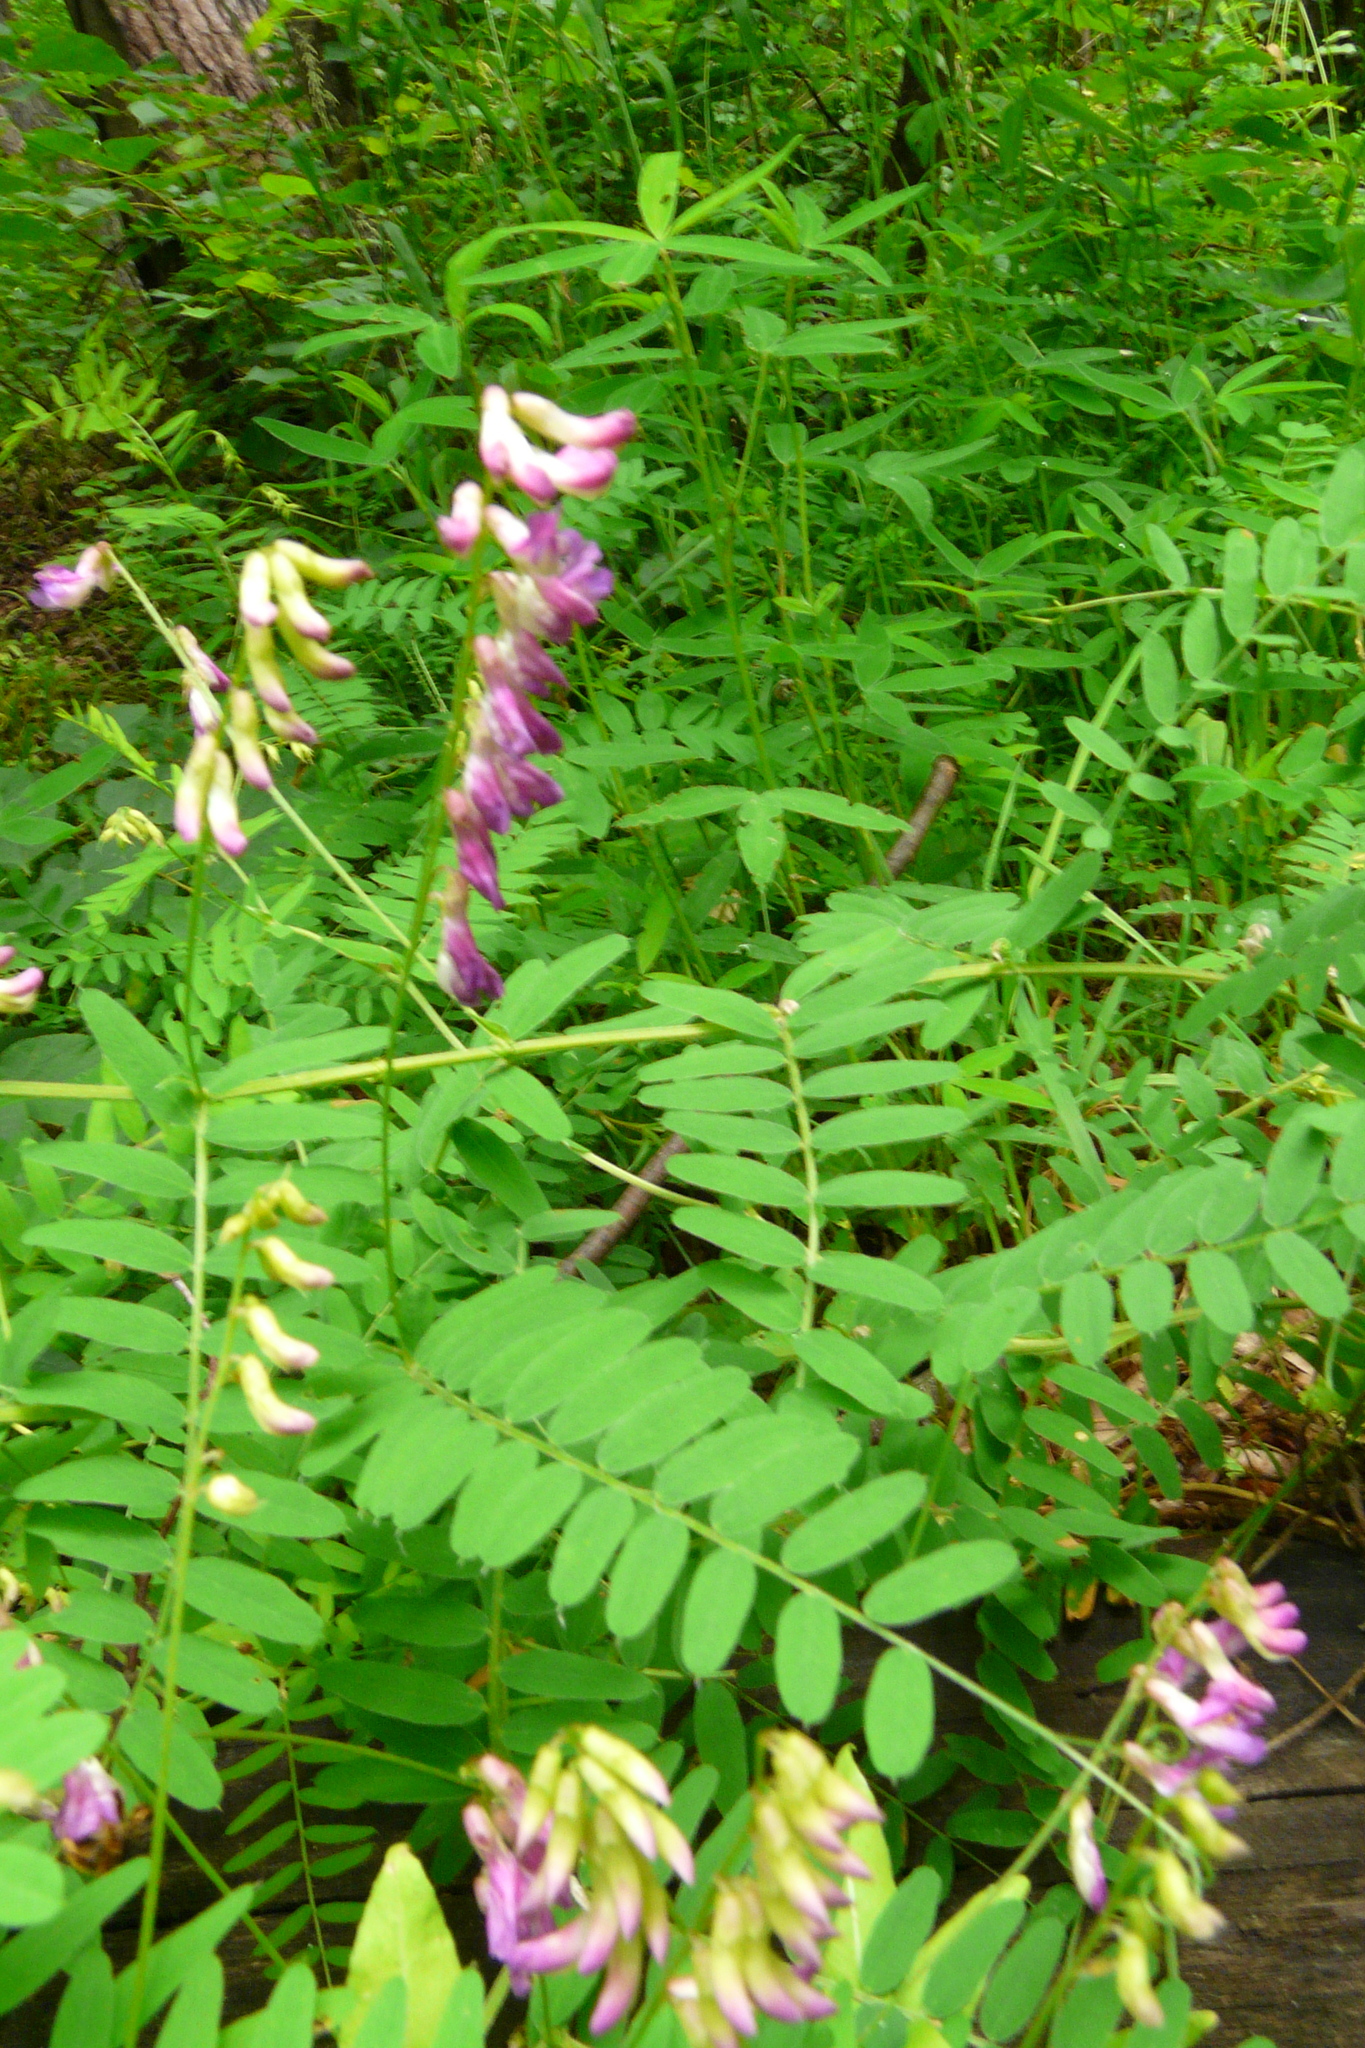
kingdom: Plantae
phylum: Tracheophyta
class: Magnoliopsida
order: Fabales
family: Fabaceae
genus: Vicia
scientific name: Vicia cassubica
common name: Danzig vetch
